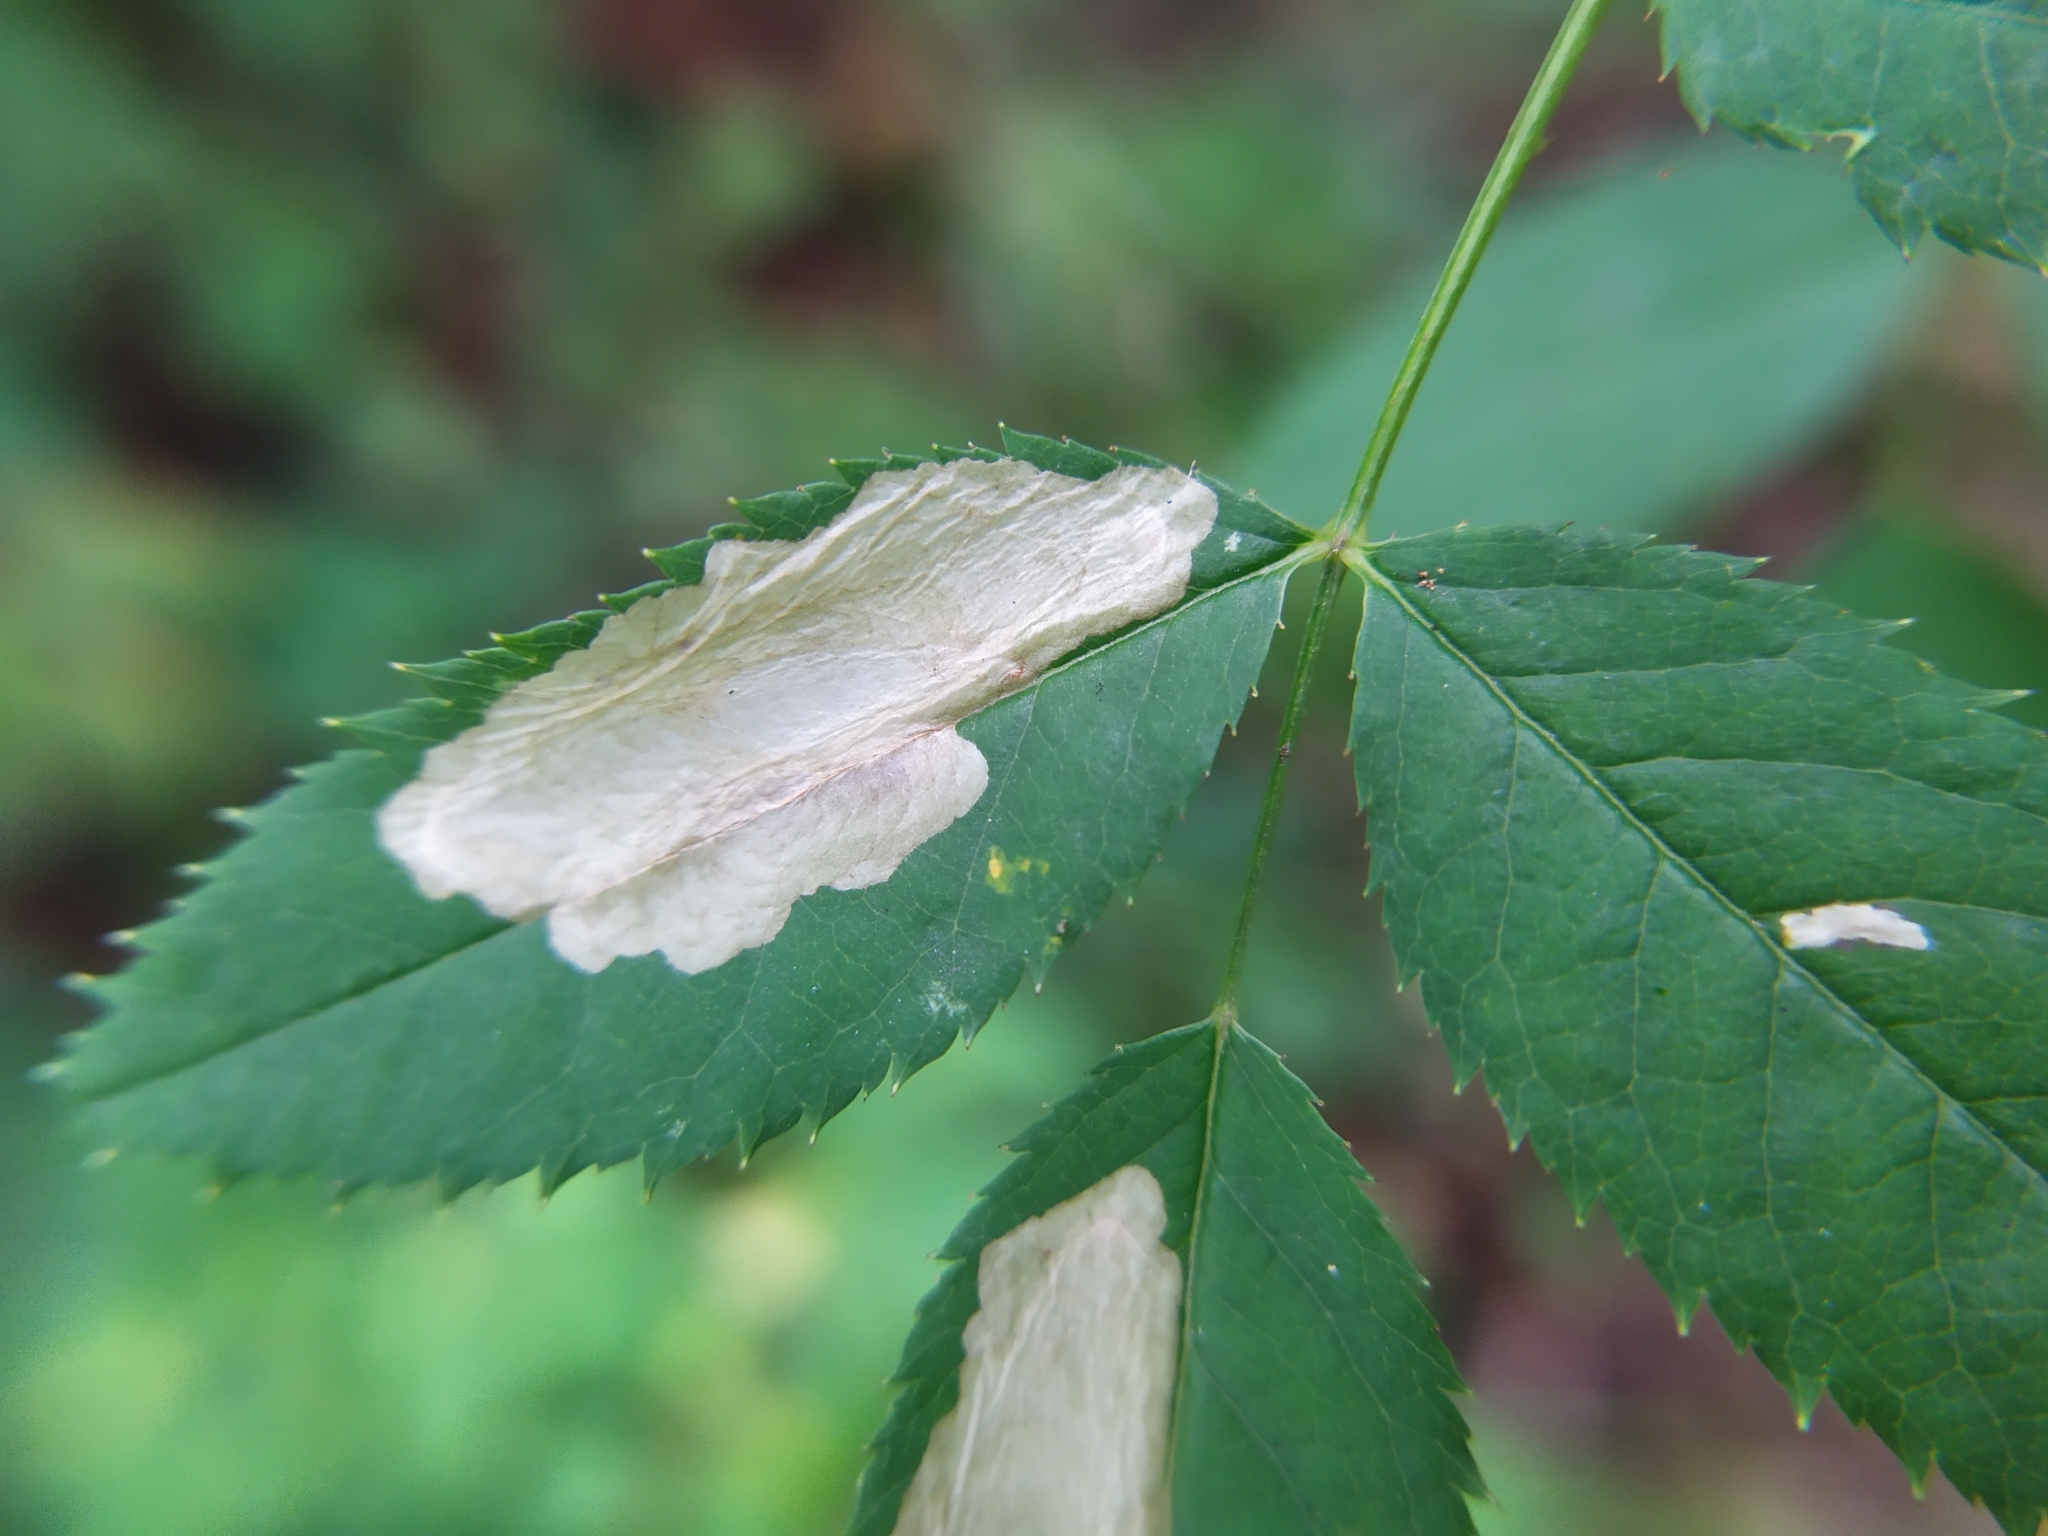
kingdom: Animalia
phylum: Arthropoda
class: Insecta
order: Lepidoptera
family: Tischeriidae
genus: Coptotriche
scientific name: Coptotriche angusticolella
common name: Rose carl
